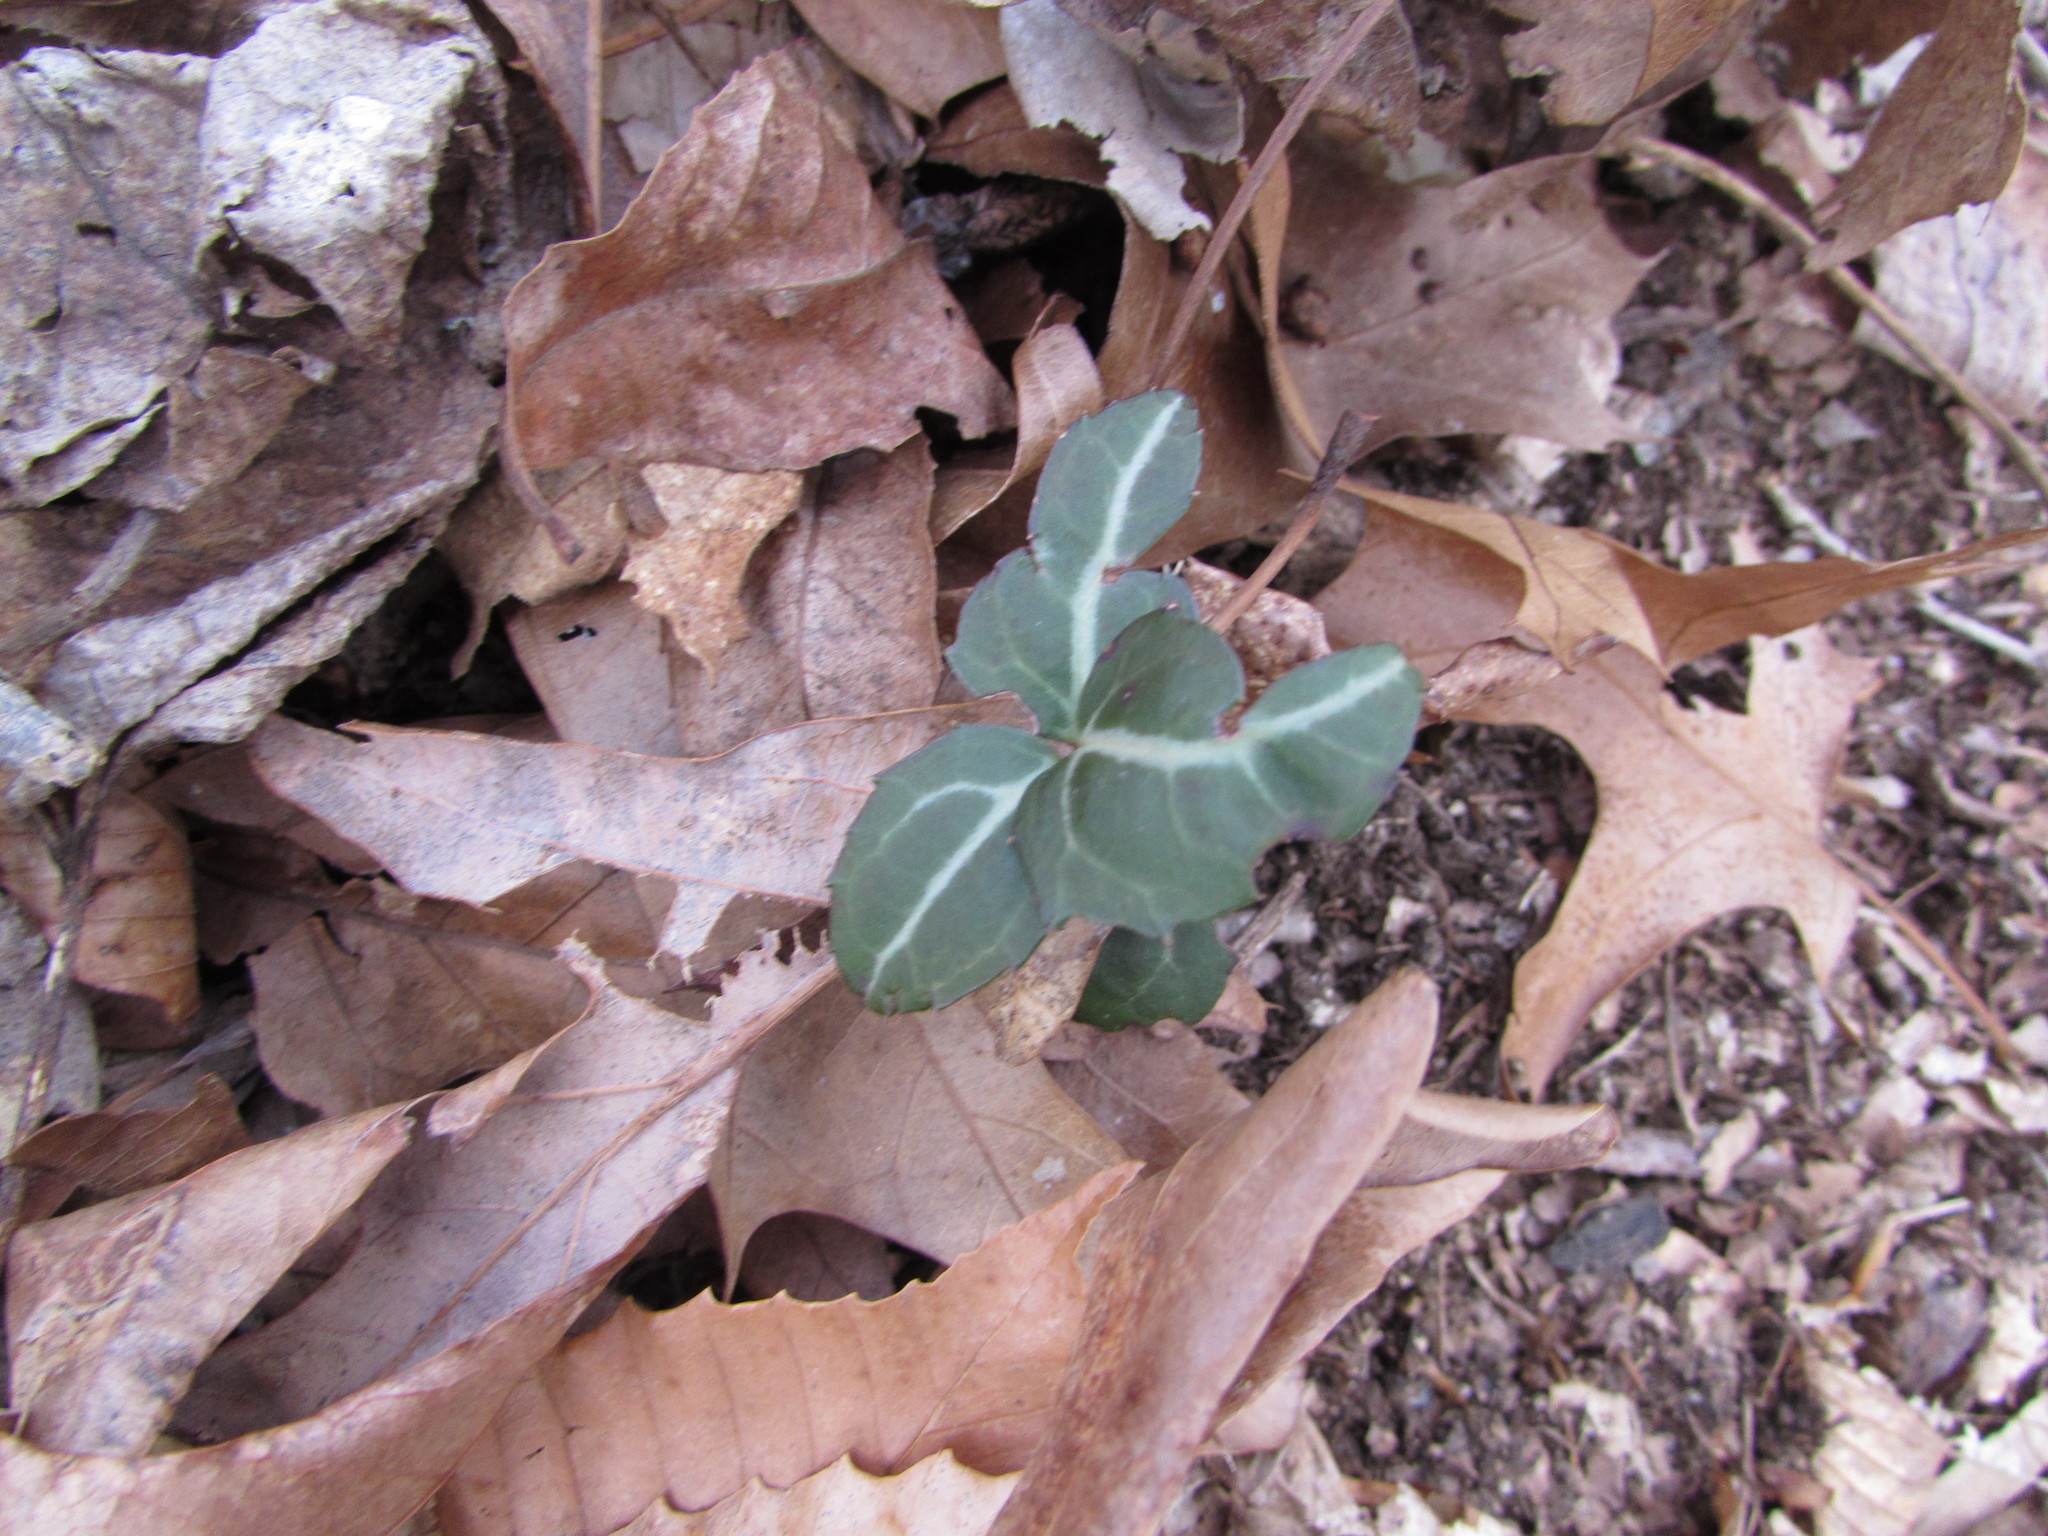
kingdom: Plantae
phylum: Tracheophyta
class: Magnoliopsida
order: Ericales
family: Ericaceae
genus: Chimaphila
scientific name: Chimaphila maculata
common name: Spotted pipsissewa
